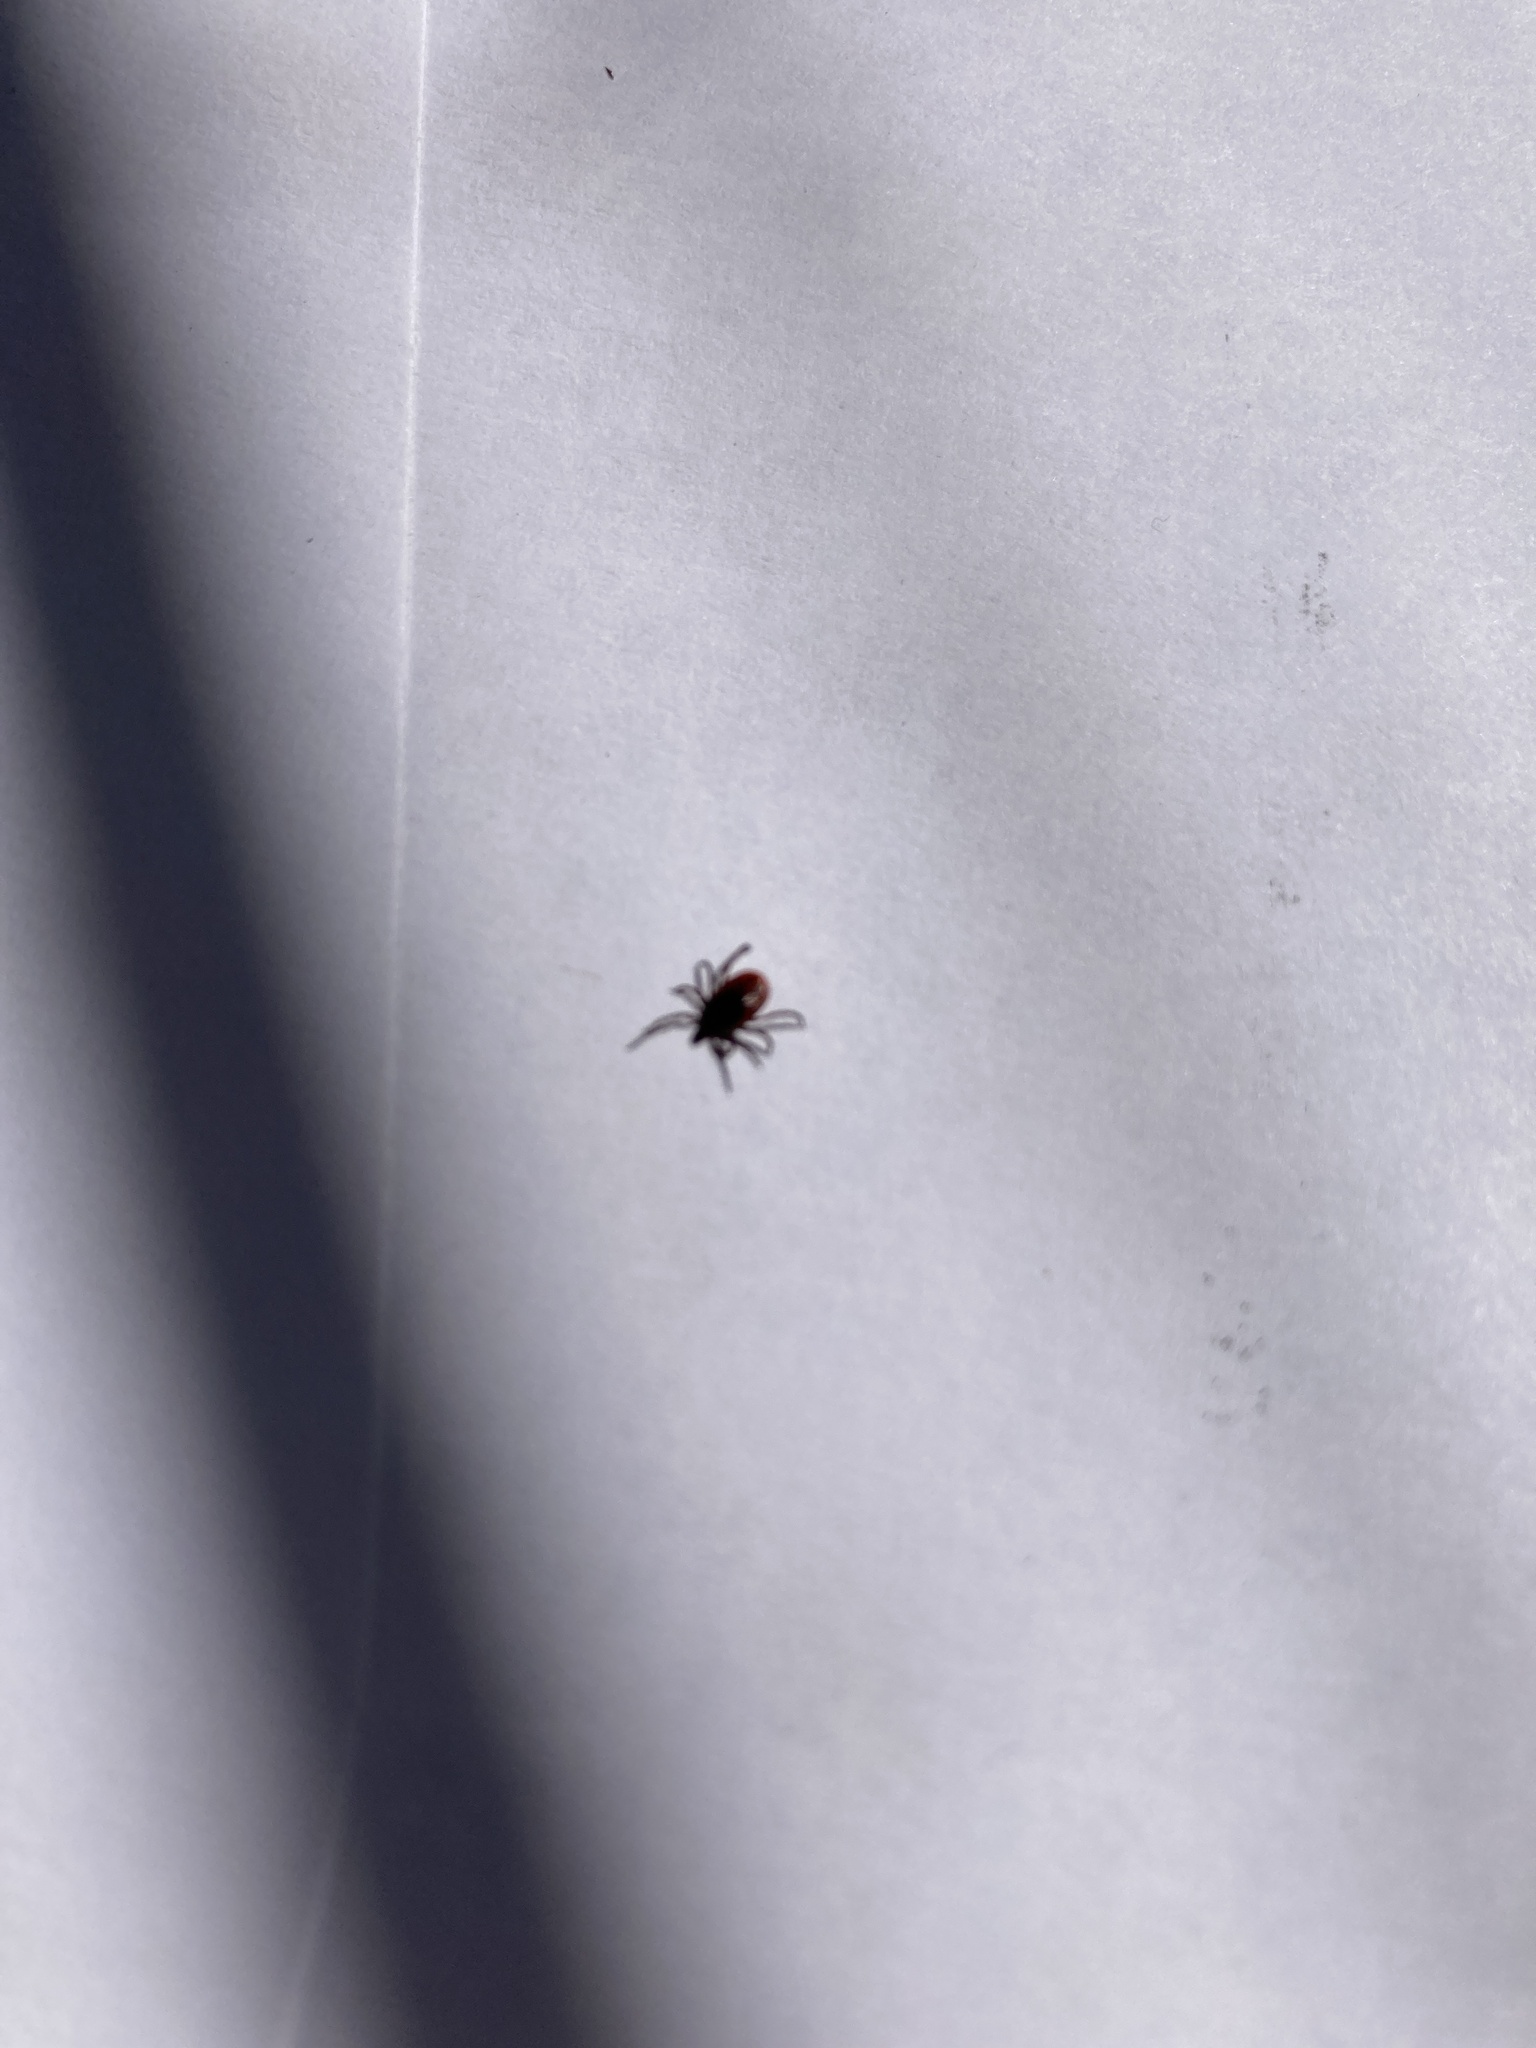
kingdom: Animalia
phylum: Arthropoda
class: Arachnida
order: Ixodida
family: Ixodidae
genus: Ixodes
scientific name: Ixodes scapularis
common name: Black legged tick
